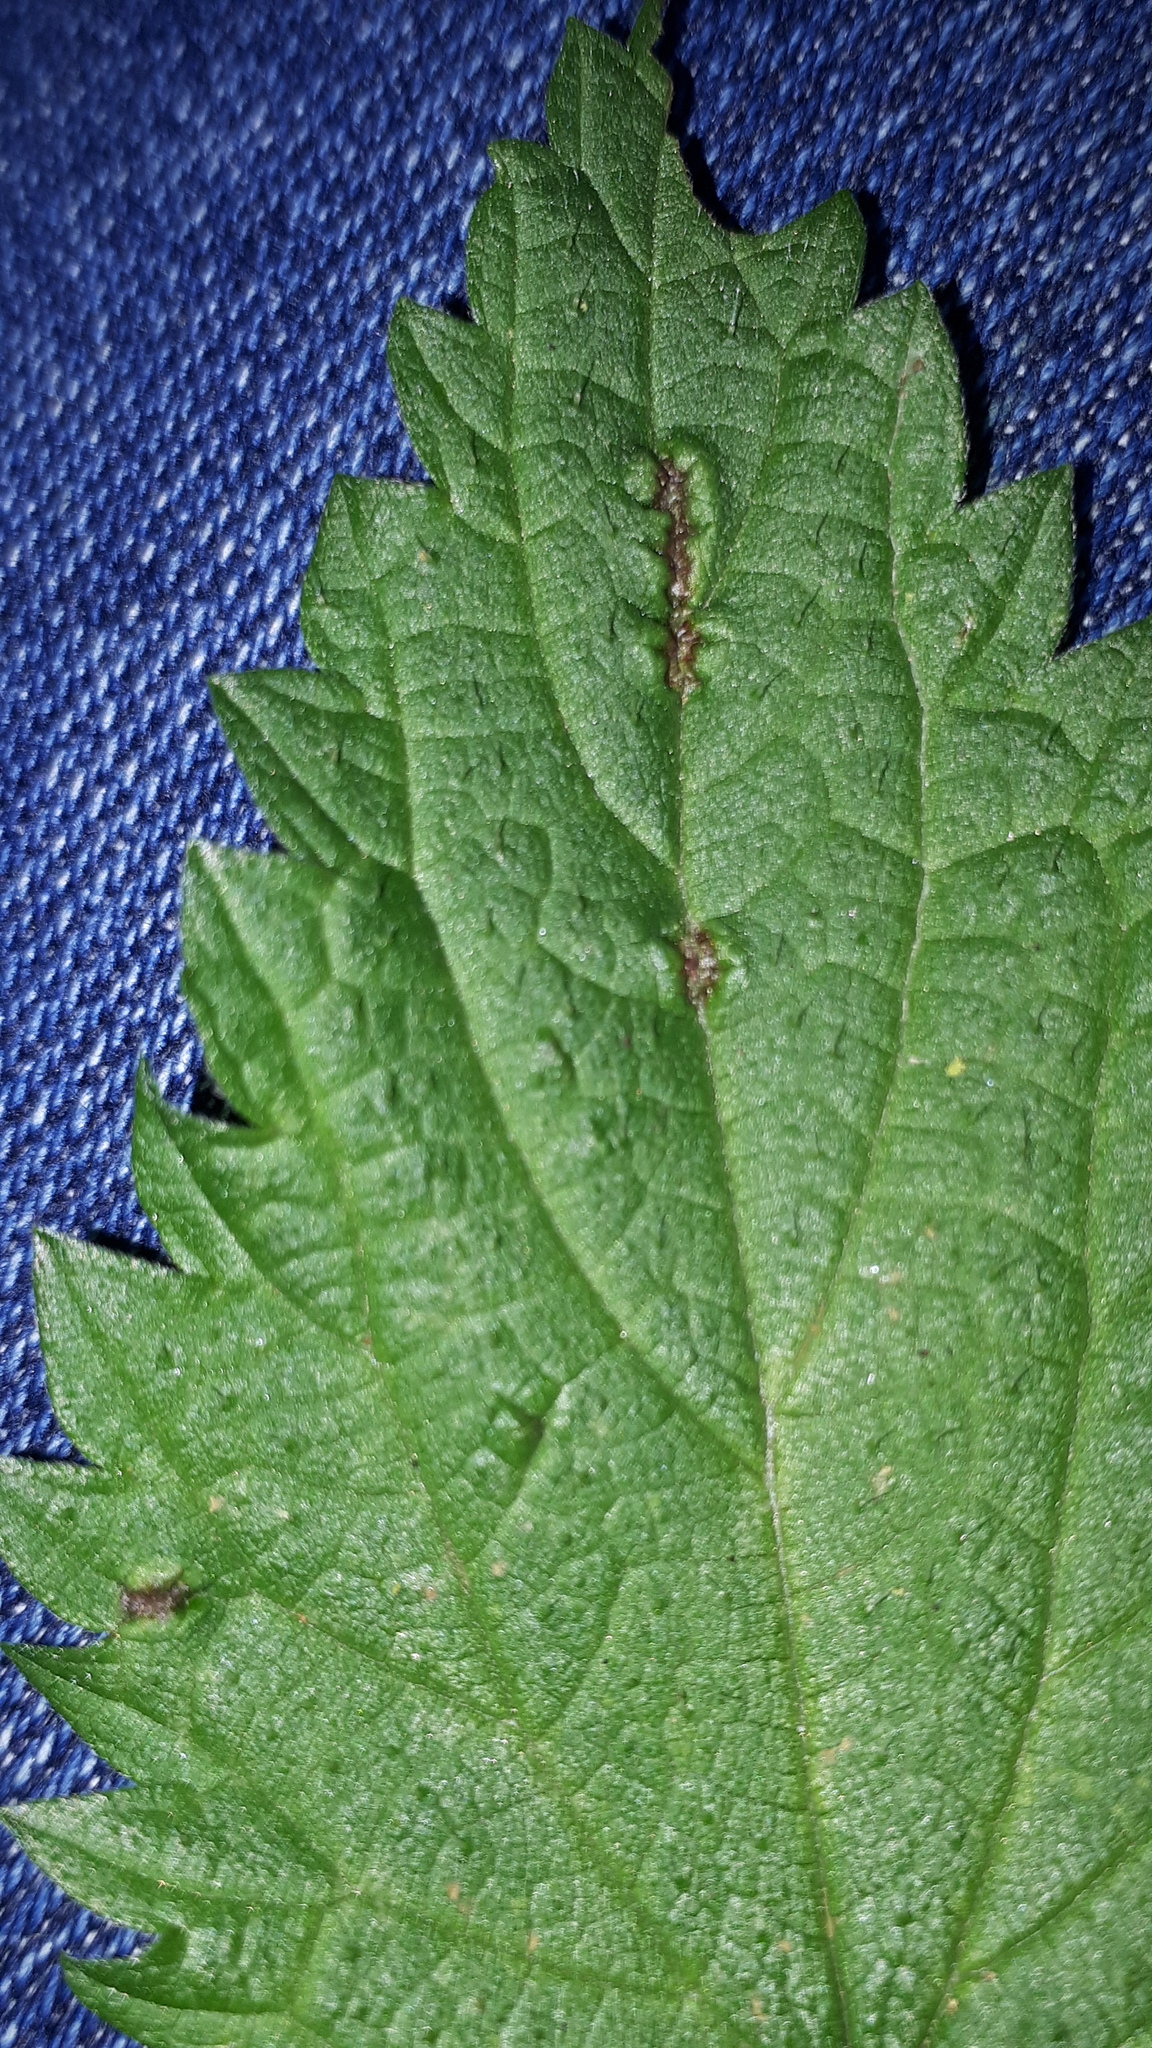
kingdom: Animalia
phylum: Arthropoda
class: Insecta
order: Diptera
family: Cecidomyiidae
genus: Dasineura
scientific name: Dasineura urticae
